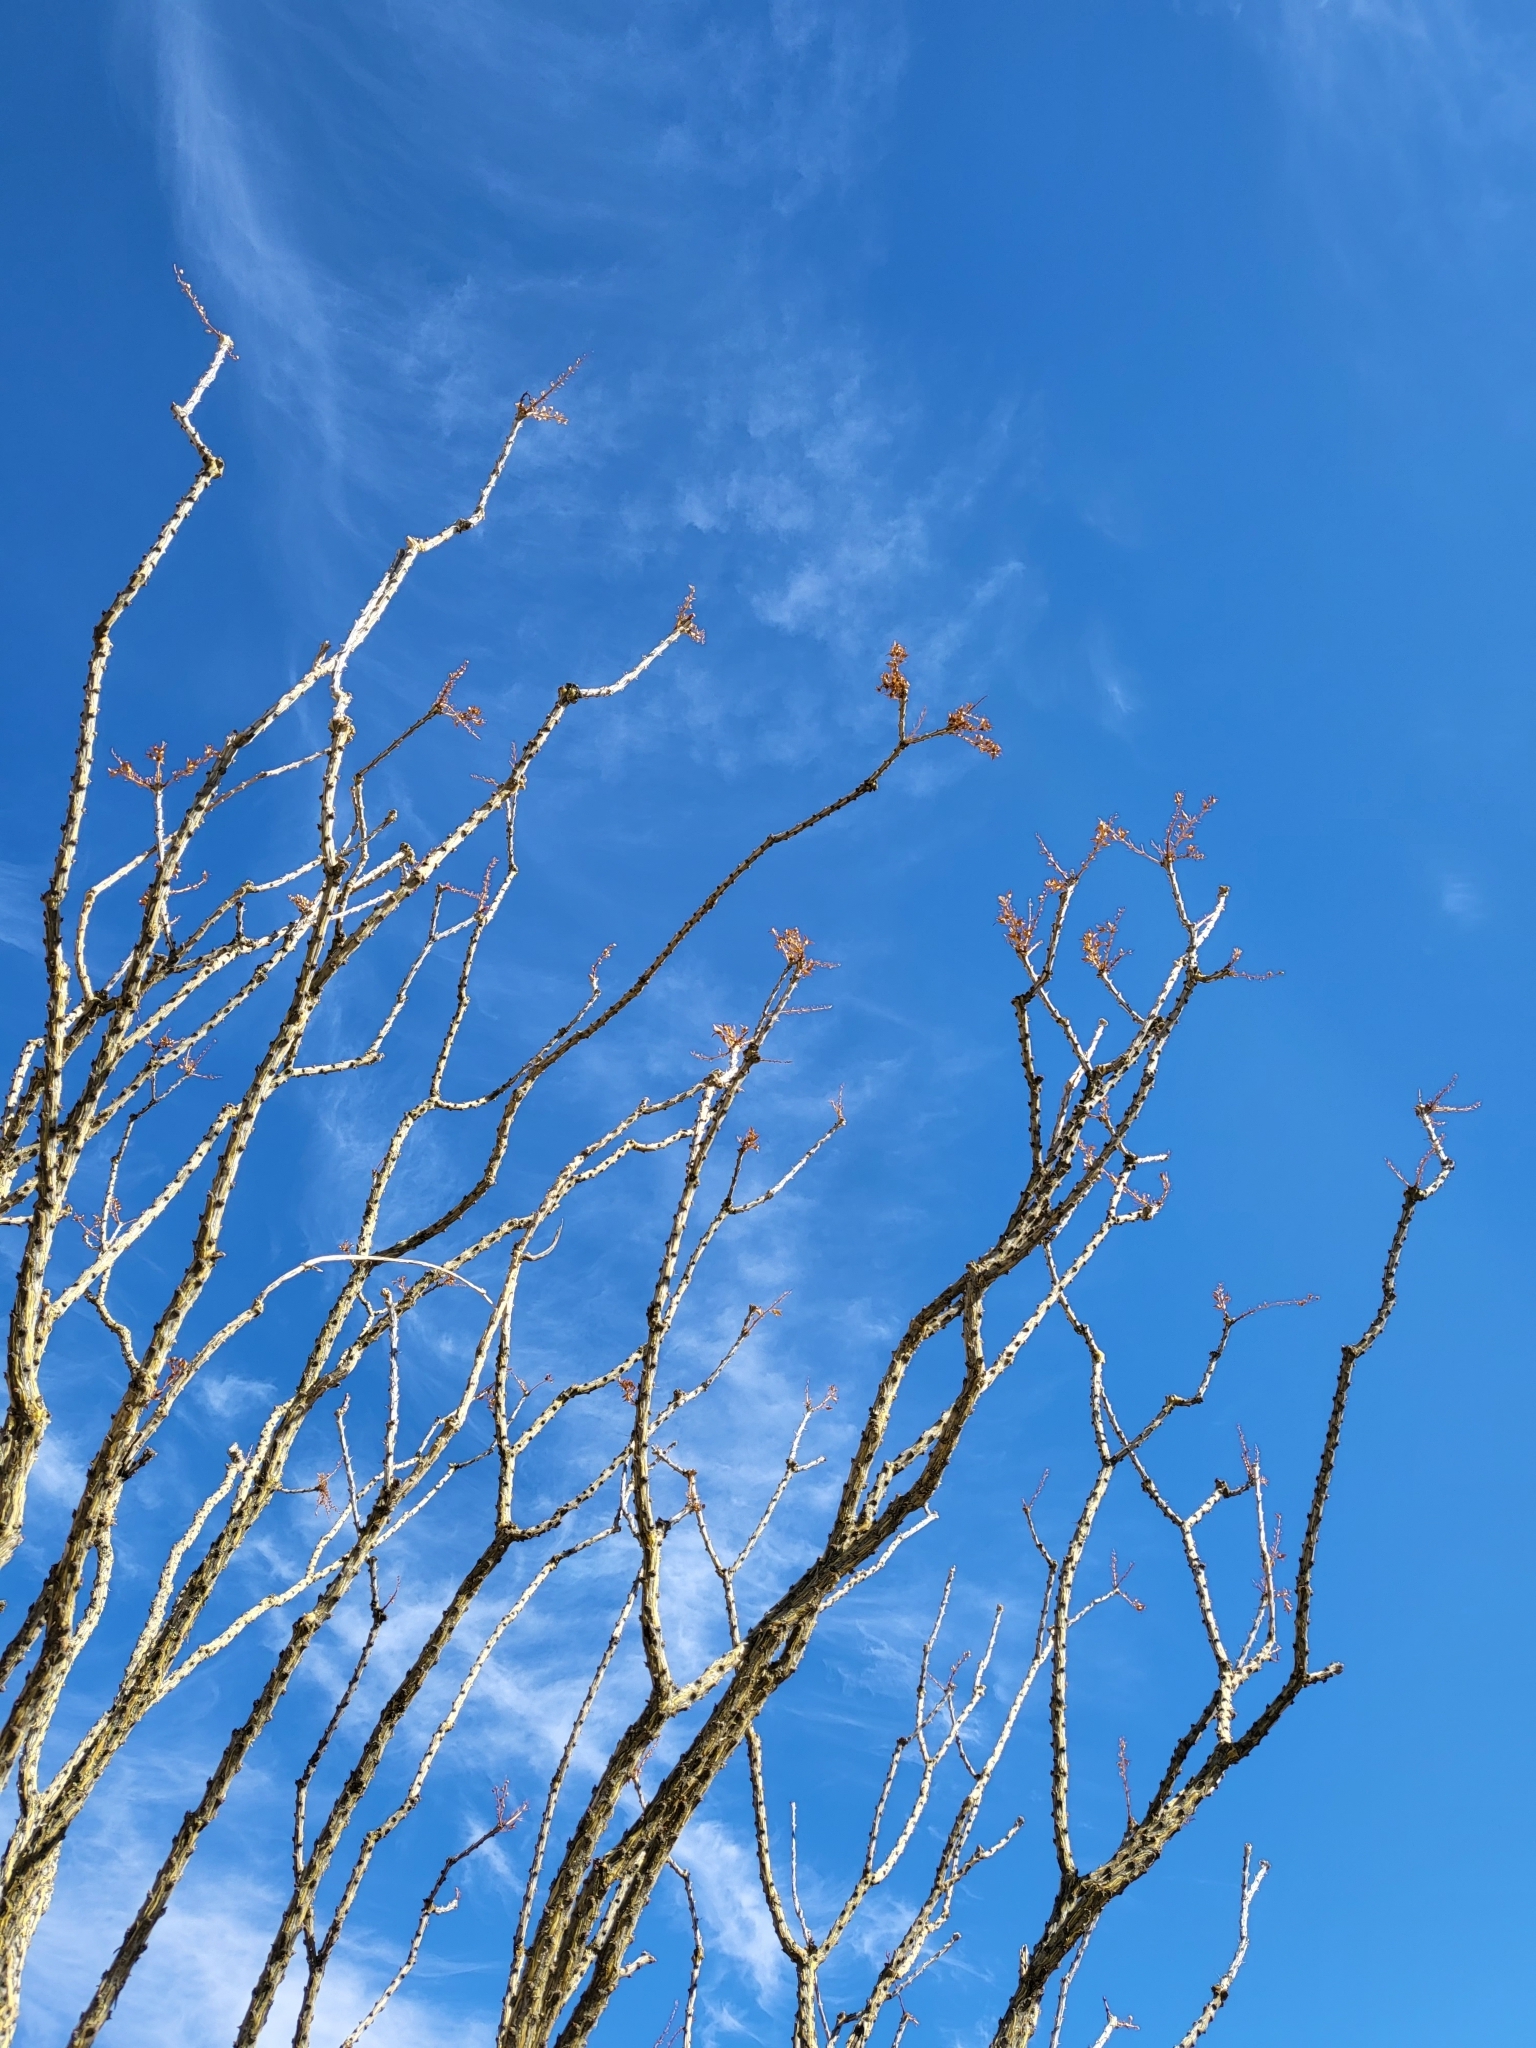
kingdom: Plantae
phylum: Tracheophyta
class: Magnoliopsida
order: Ericales
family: Fouquieriaceae
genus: Fouquieria
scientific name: Fouquieria splendens
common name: Vine-cactus
